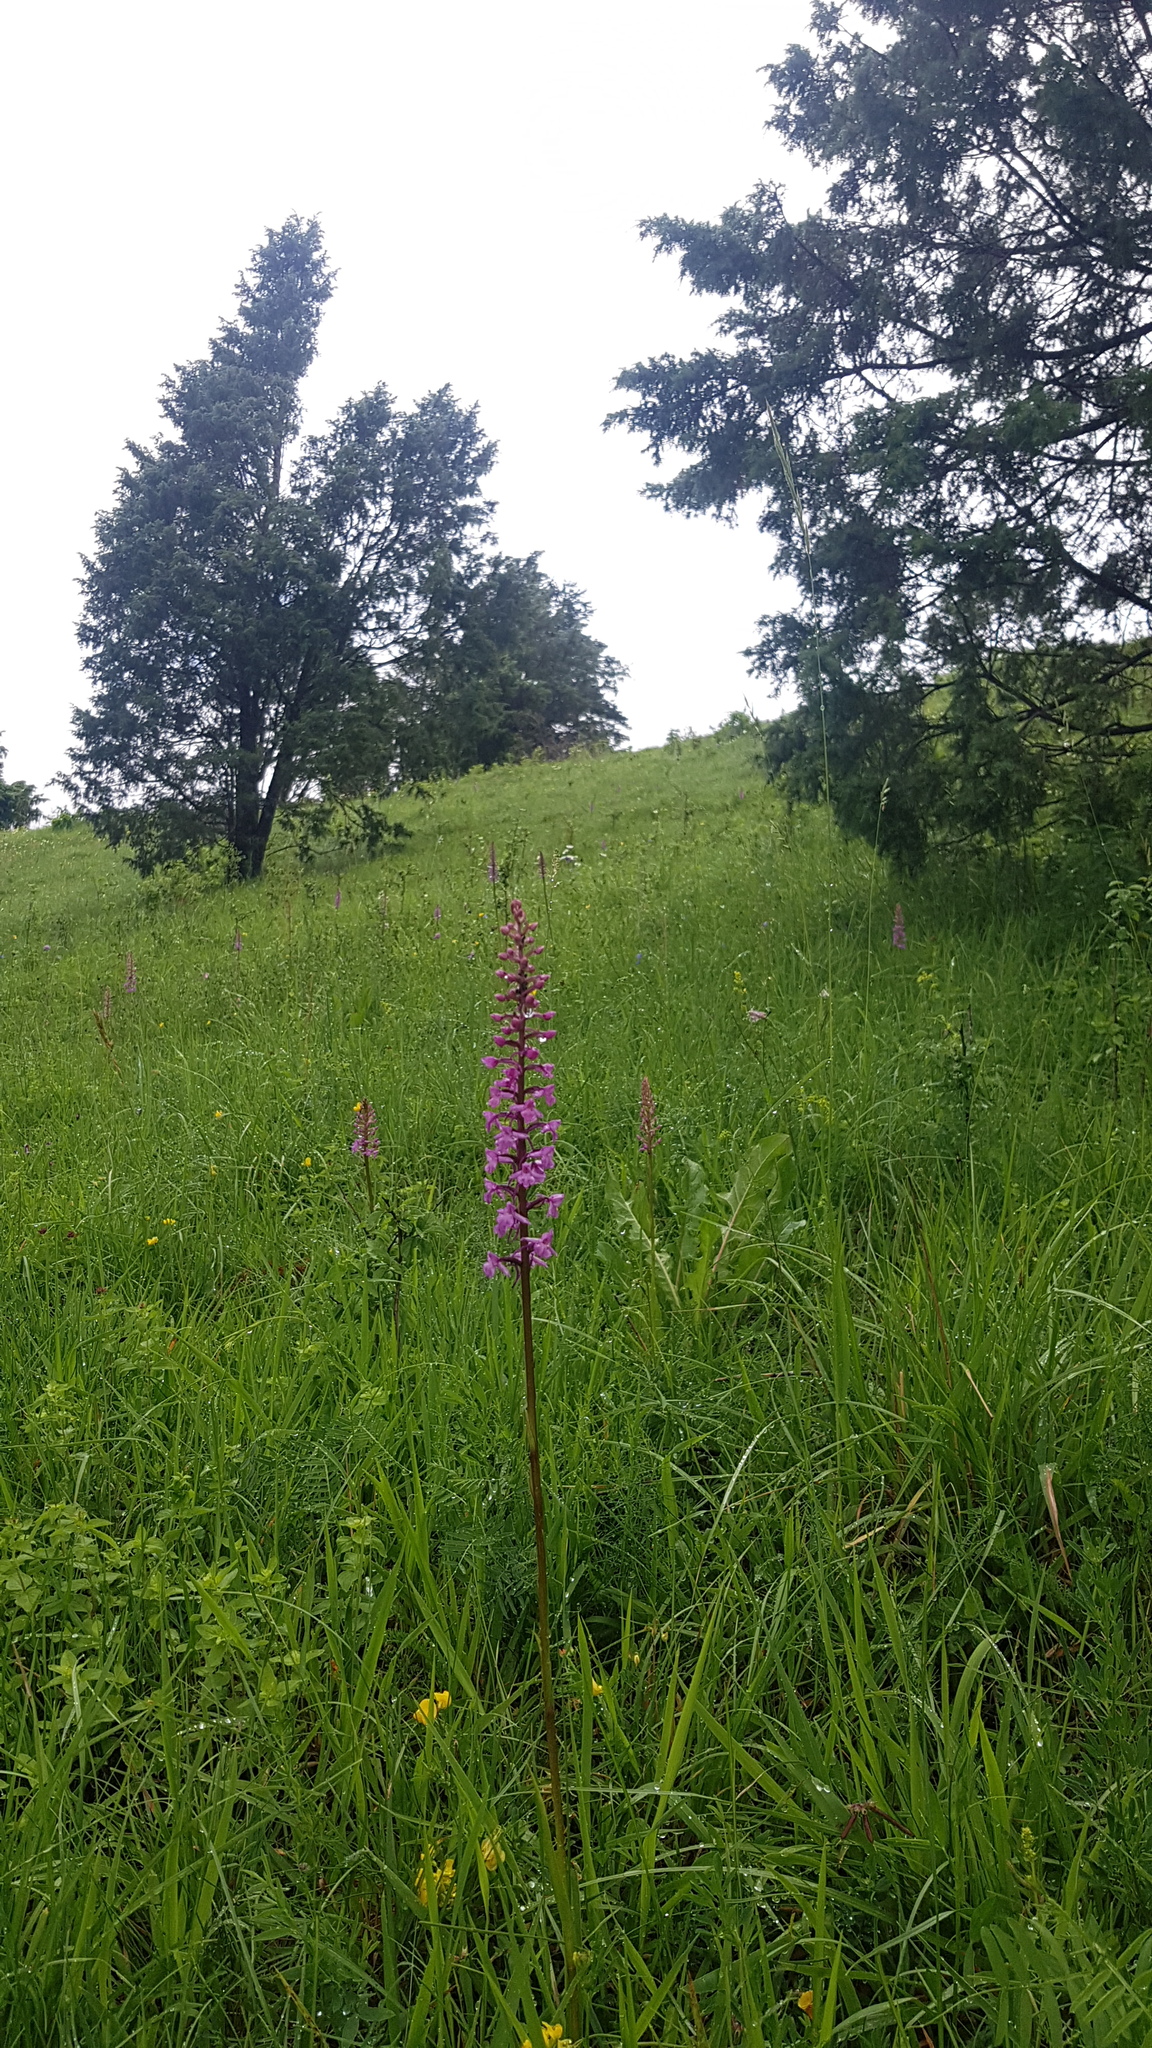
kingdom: Plantae
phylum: Tracheophyta
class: Liliopsida
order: Asparagales
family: Orchidaceae
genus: Gymnadenia
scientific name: Gymnadenia conopsea
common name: Fragrant orchid
